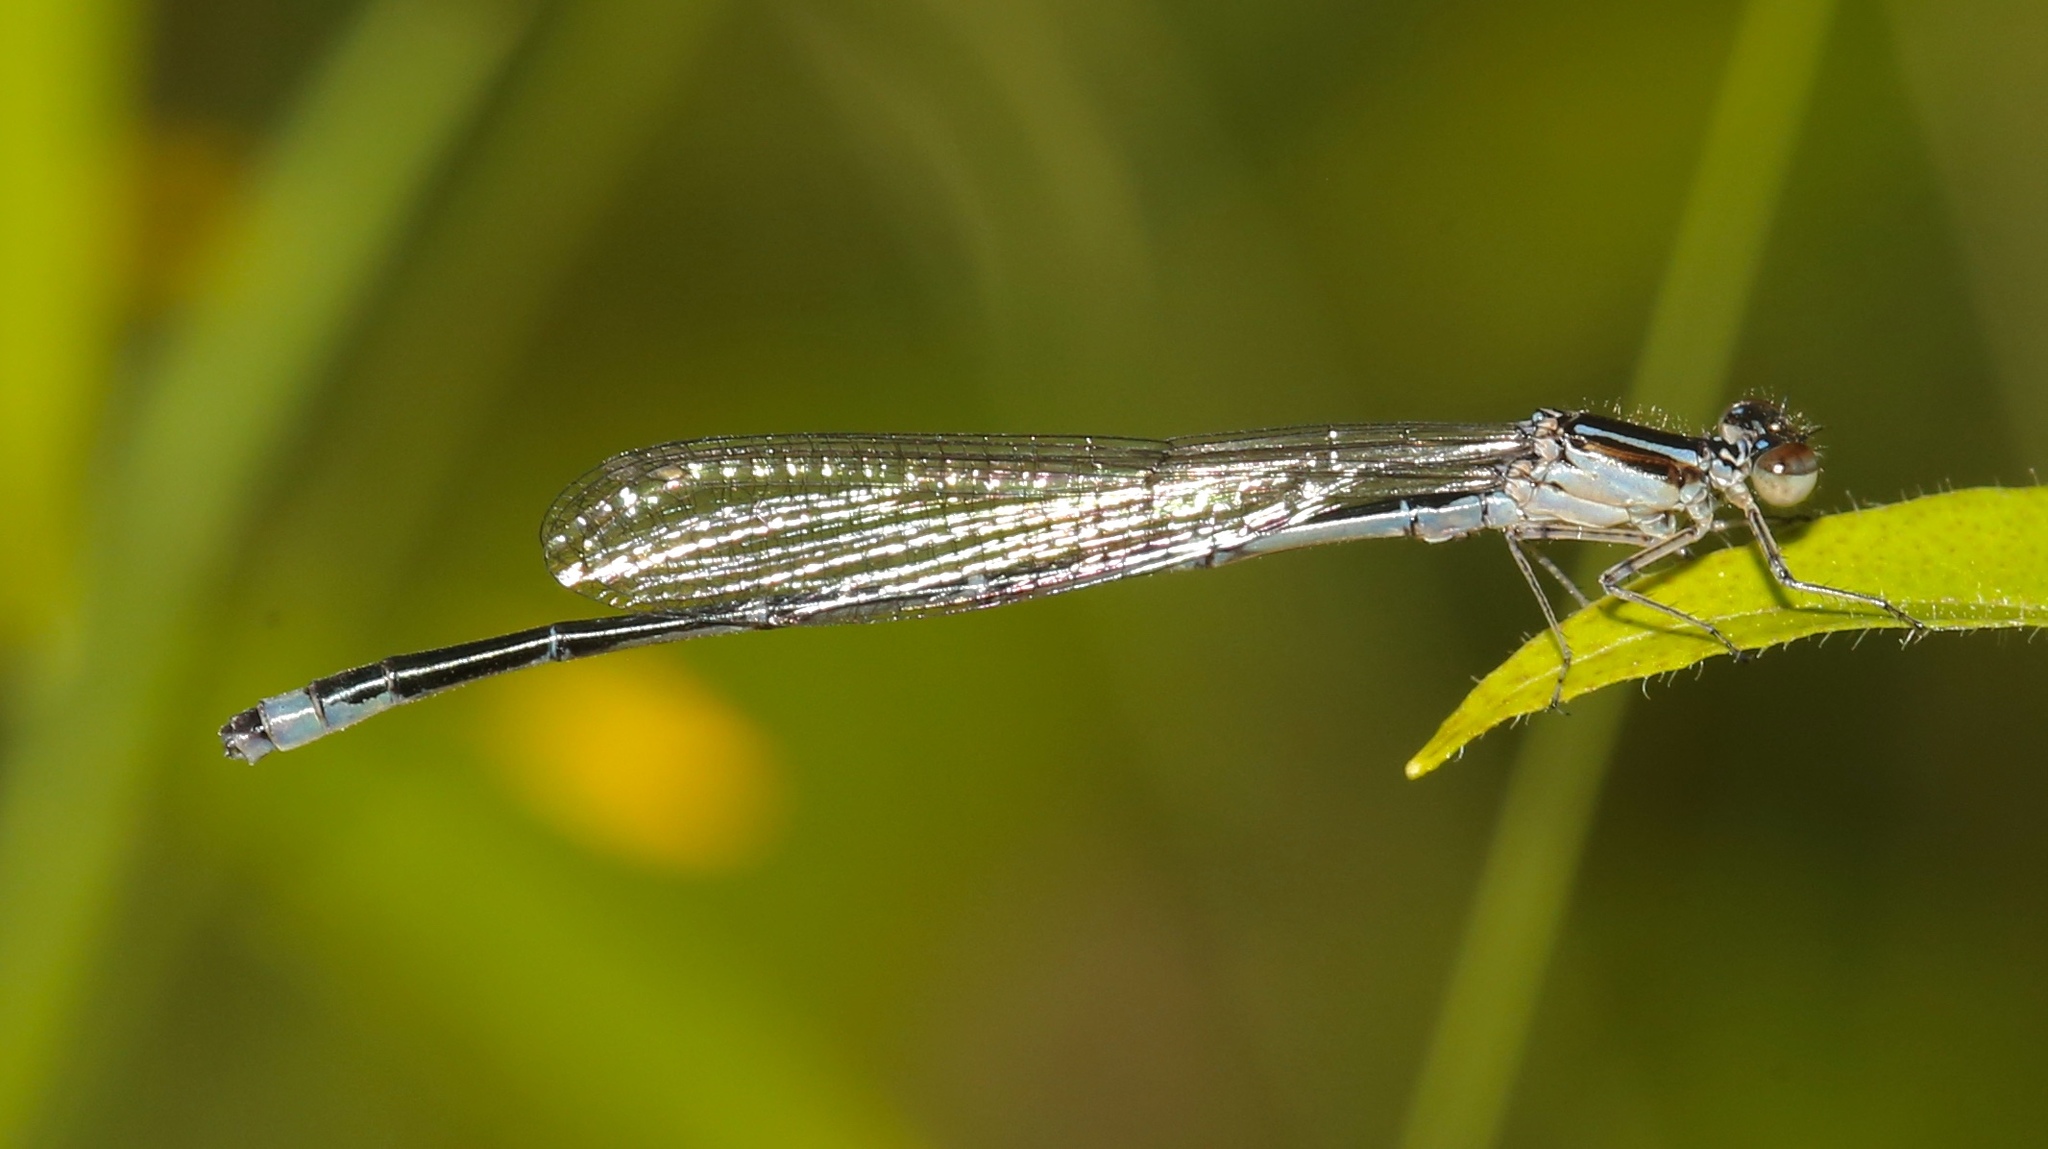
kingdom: Animalia
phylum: Arthropoda
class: Insecta
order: Odonata
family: Coenagrionidae
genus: Enallagma
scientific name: Enallagma exsulans
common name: Stream bluet
